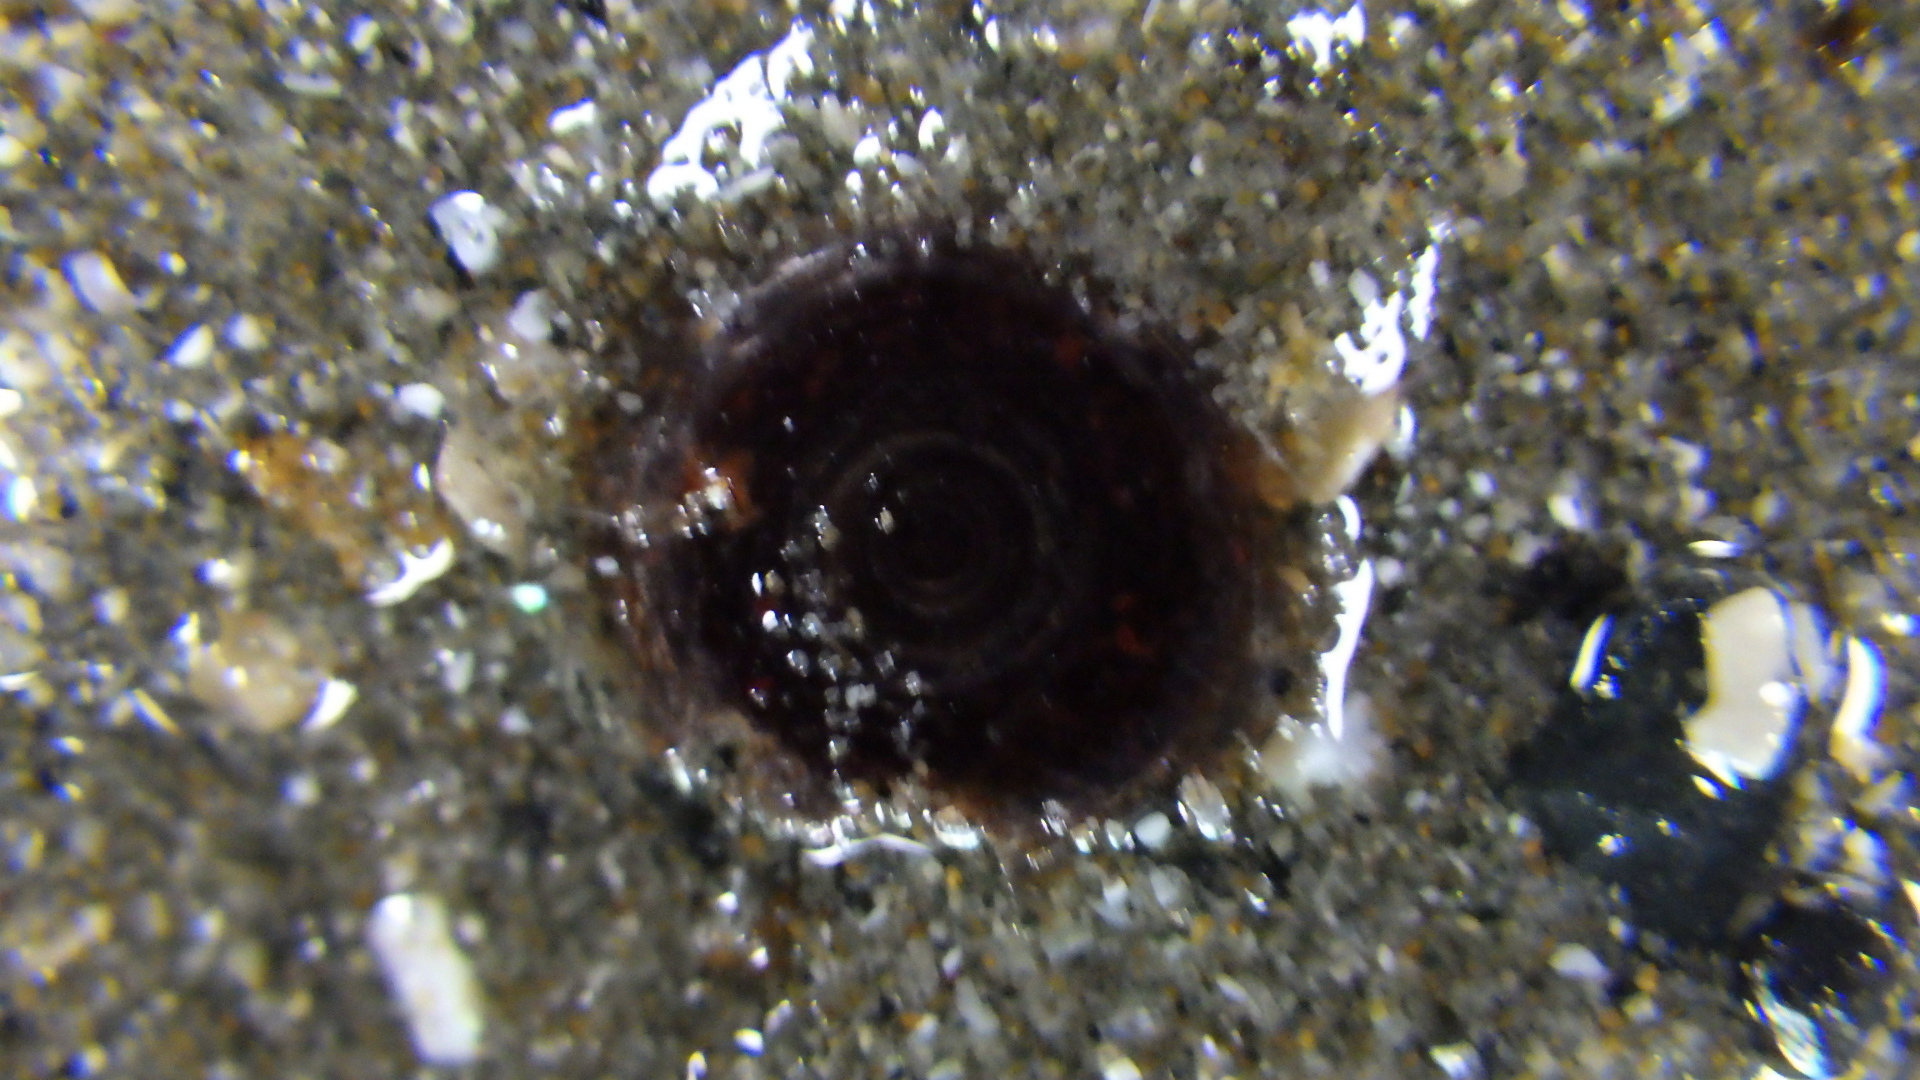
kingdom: Animalia
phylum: Mollusca
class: Gastropoda
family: Turritellidae
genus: Maoricolpus
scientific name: Maoricolpus roseus
